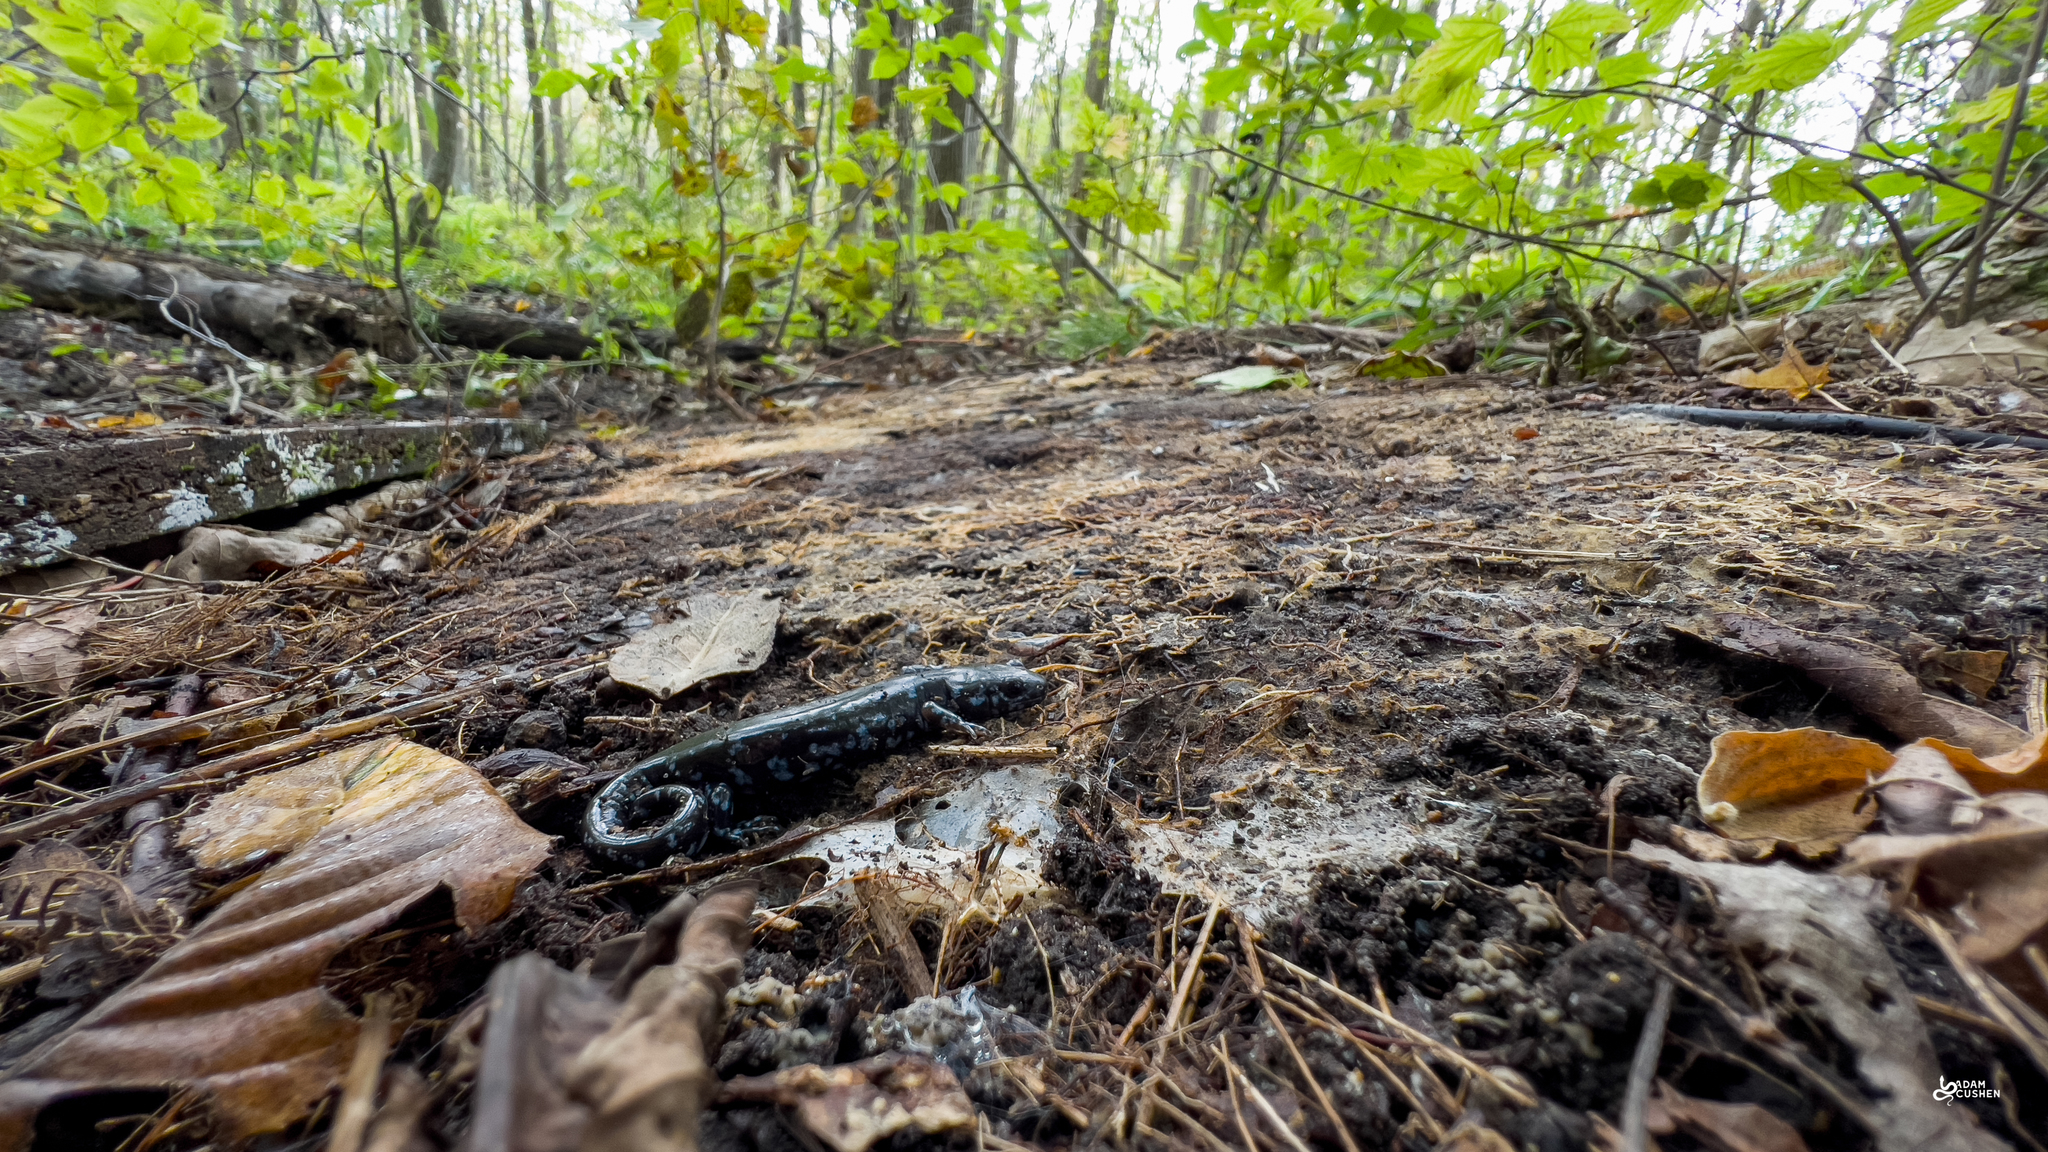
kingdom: Animalia
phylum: Chordata
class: Amphibia
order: Caudata
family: Ambystomatidae
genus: Ambystoma
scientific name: Ambystoma laterale
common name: Blue-spotted salamander
